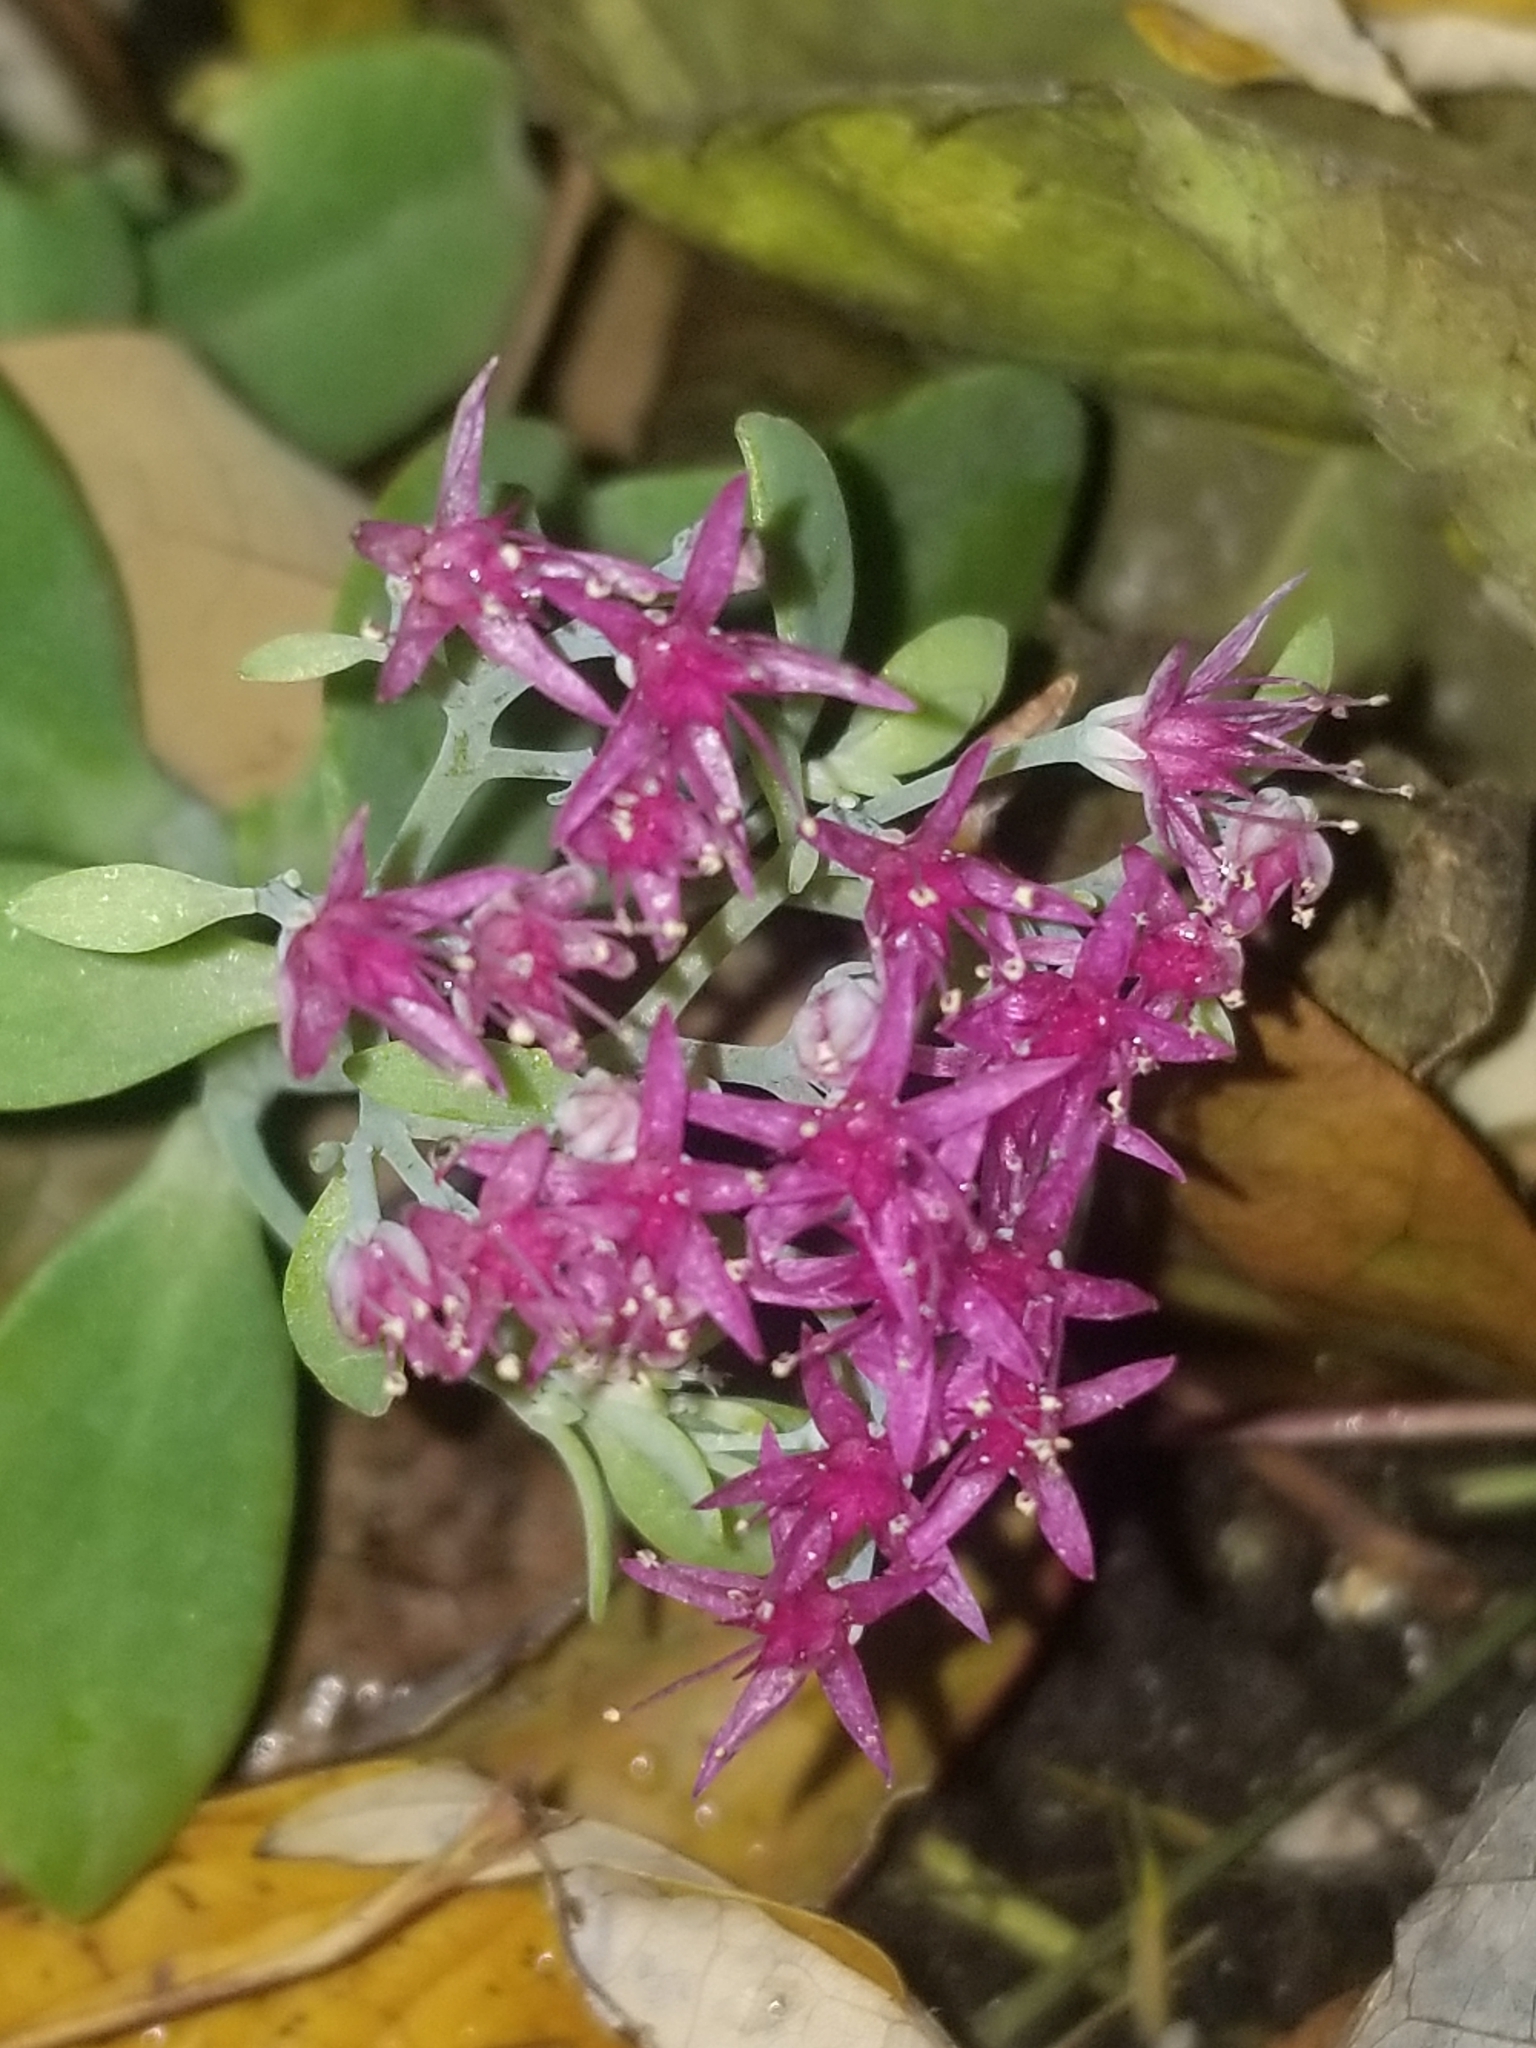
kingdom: Plantae
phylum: Tracheophyta
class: Magnoliopsida
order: Saxifragales
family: Crassulaceae
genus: Hylotelephium
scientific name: Hylotelephium spectabile
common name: Showy stonecrop
